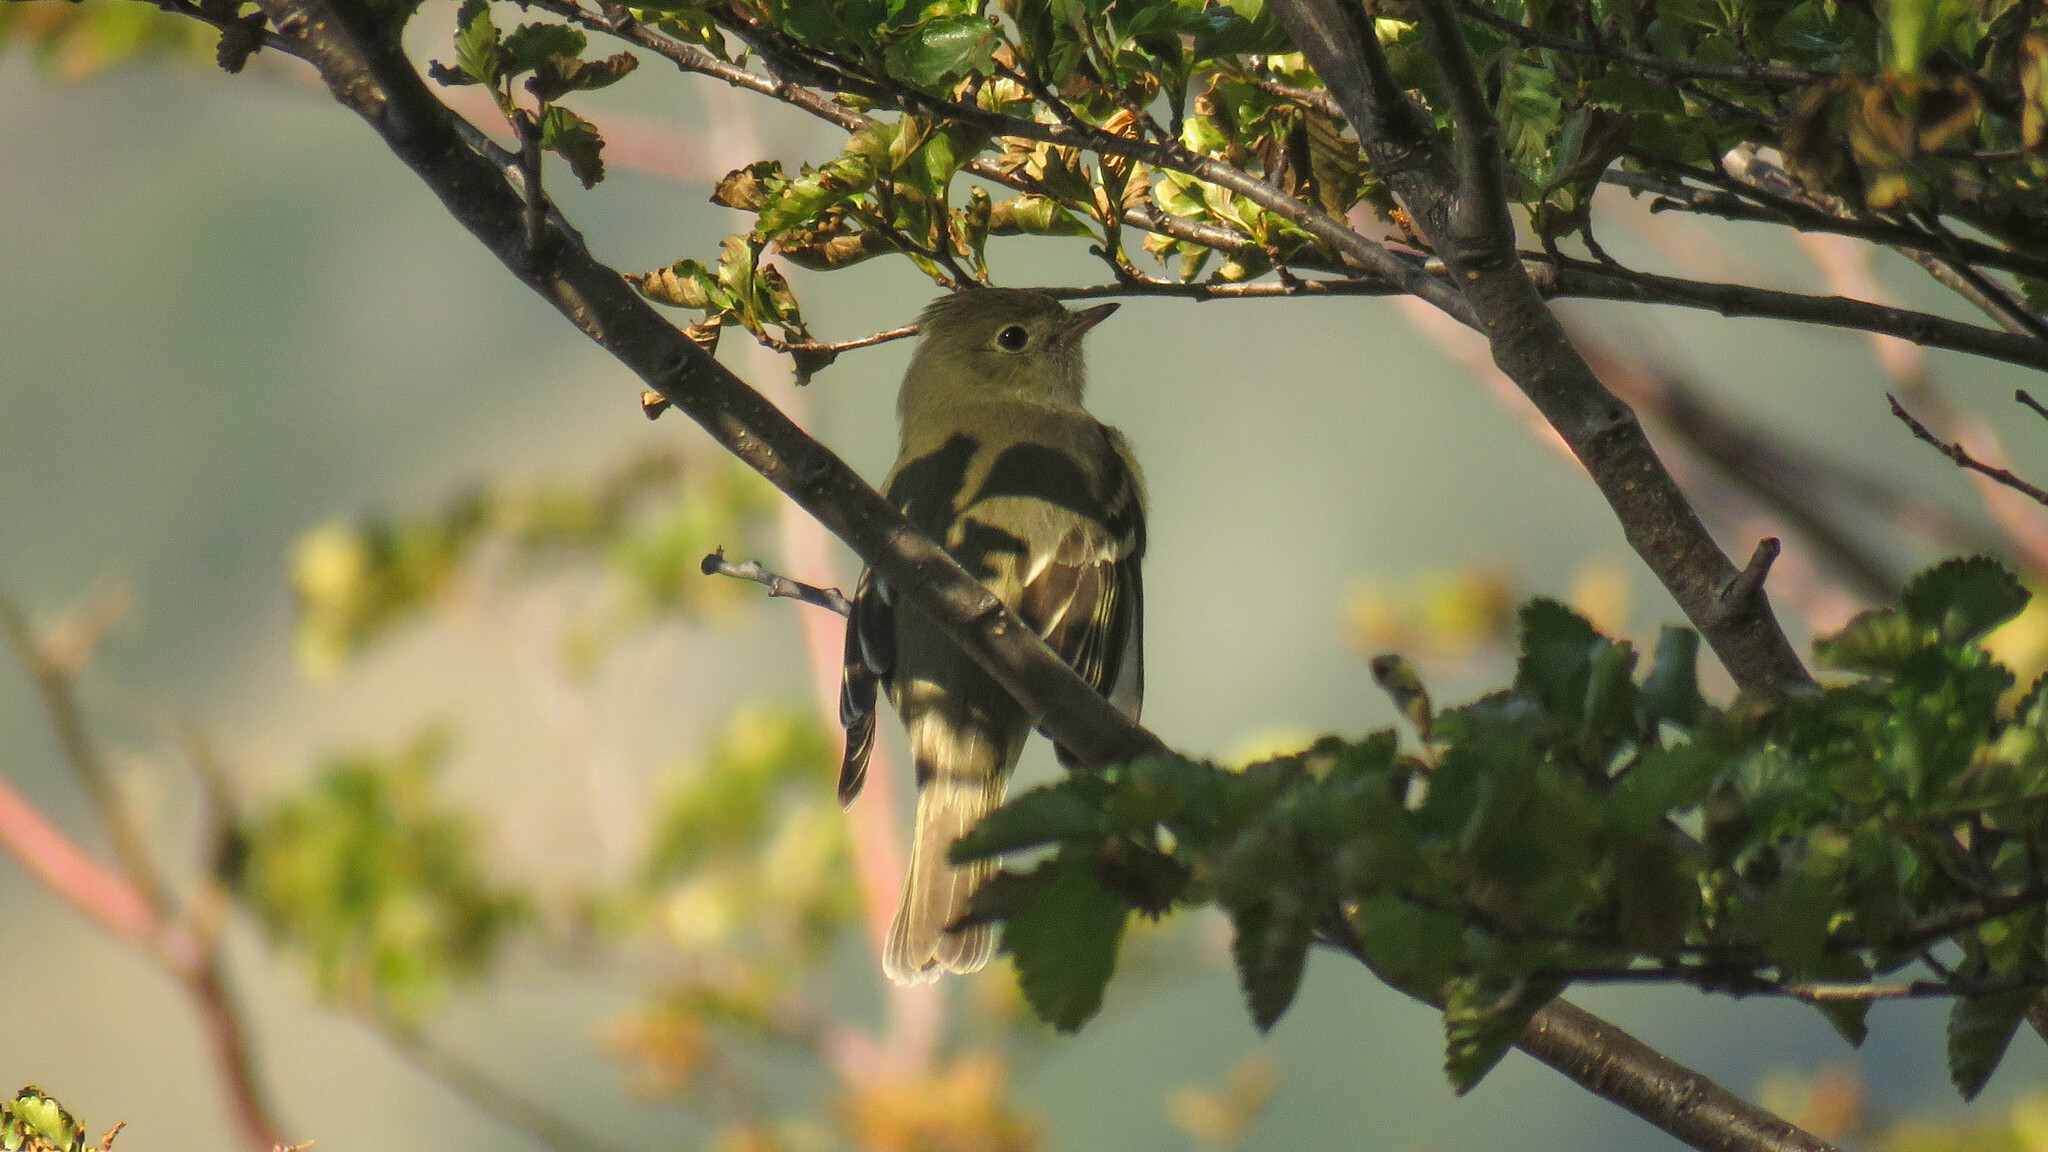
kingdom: Animalia
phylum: Chordata
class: Aves
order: Passeriformes
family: Tyrannidae
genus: Elaenia
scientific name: Elaenia albiceps
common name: White-crested elaenia
